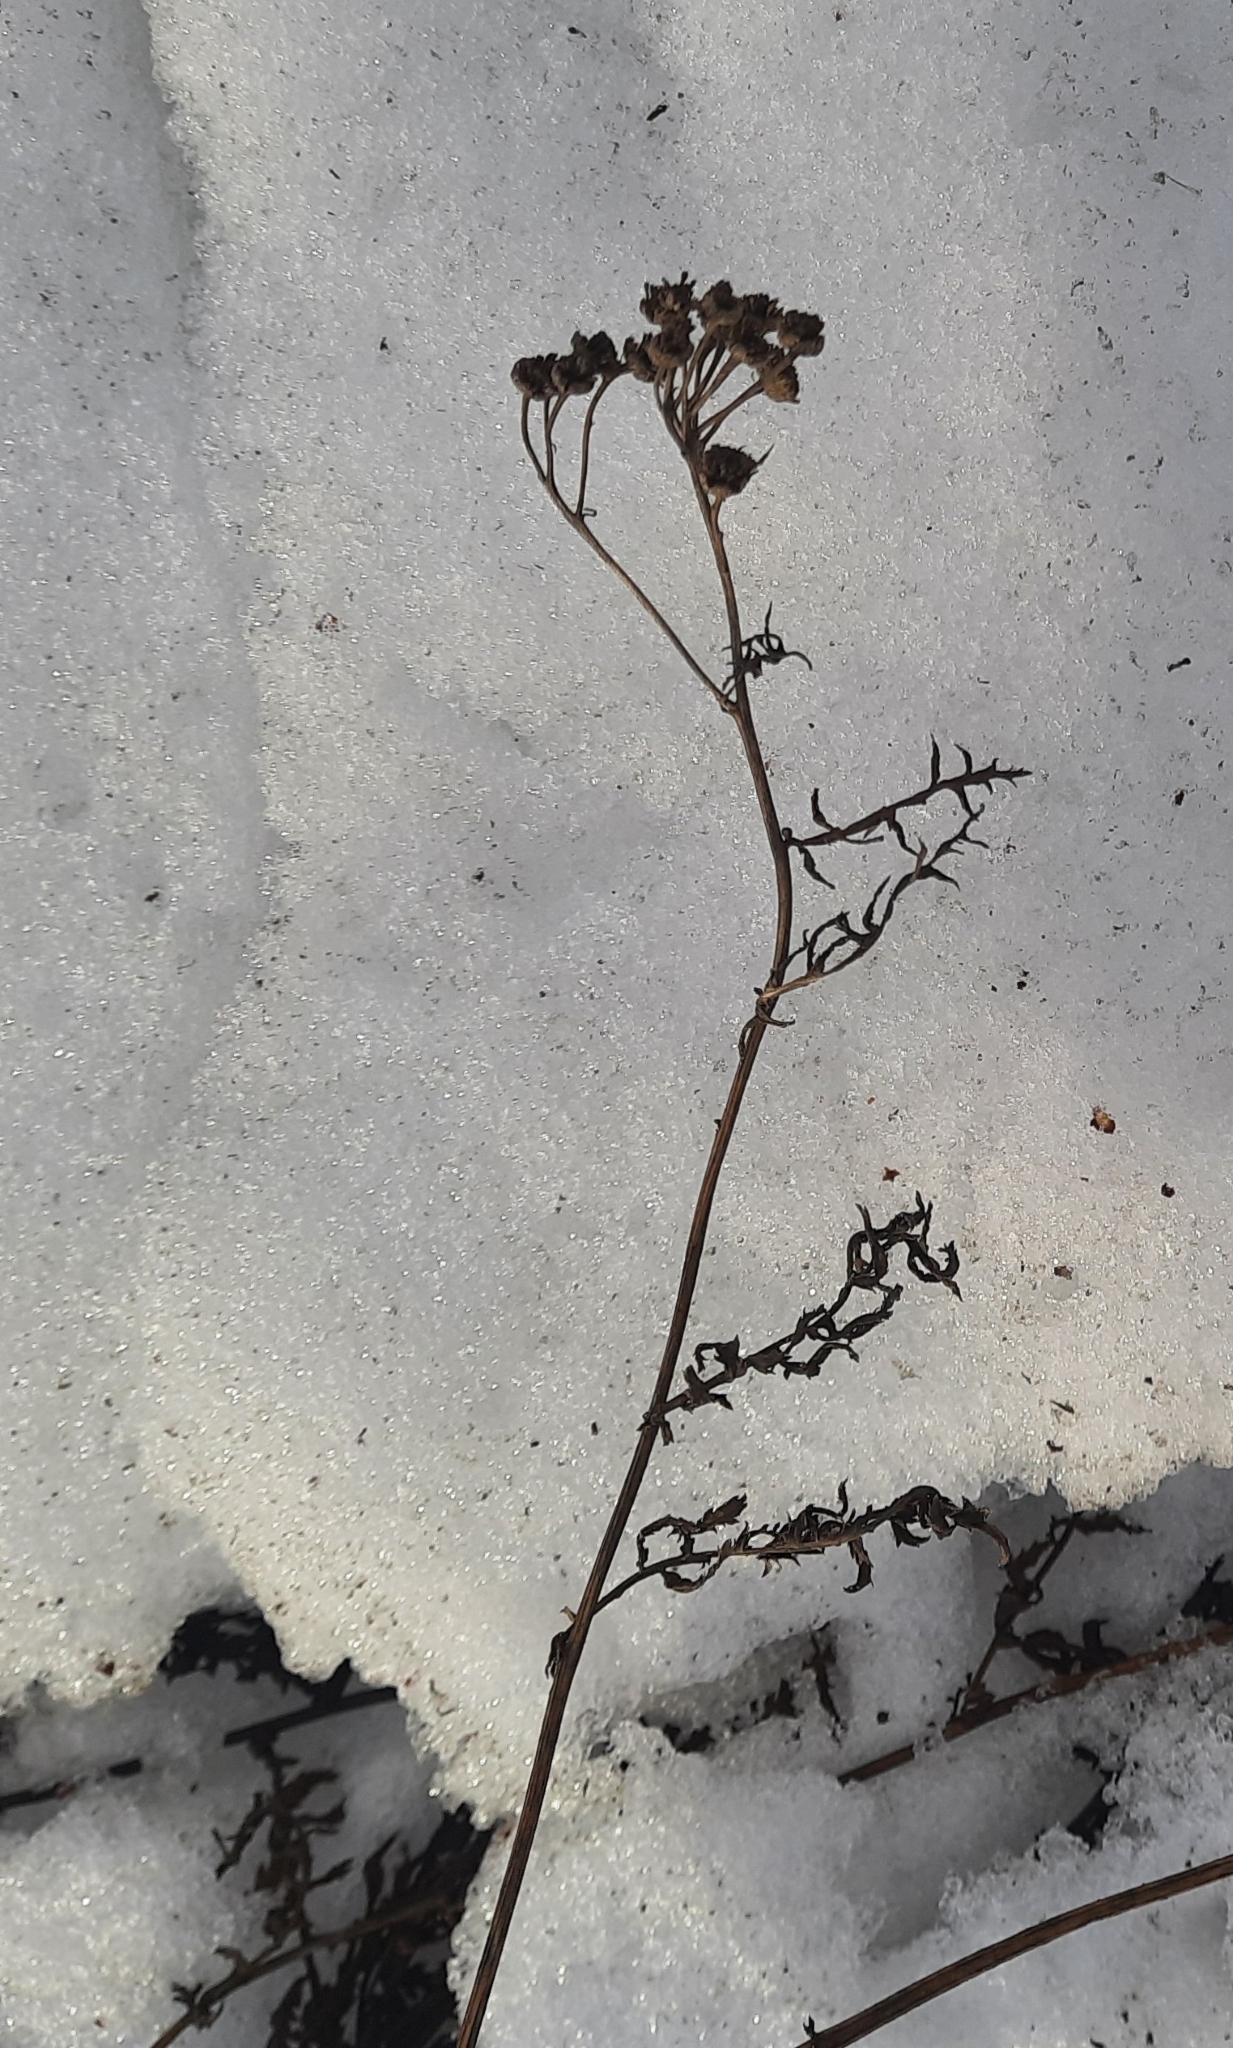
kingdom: Plantae
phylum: Tracheophyta
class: Magnoliopsida
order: Asterales
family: Asteraceae
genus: Tanacetum
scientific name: Tanacetum vulgare
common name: Common tansy
